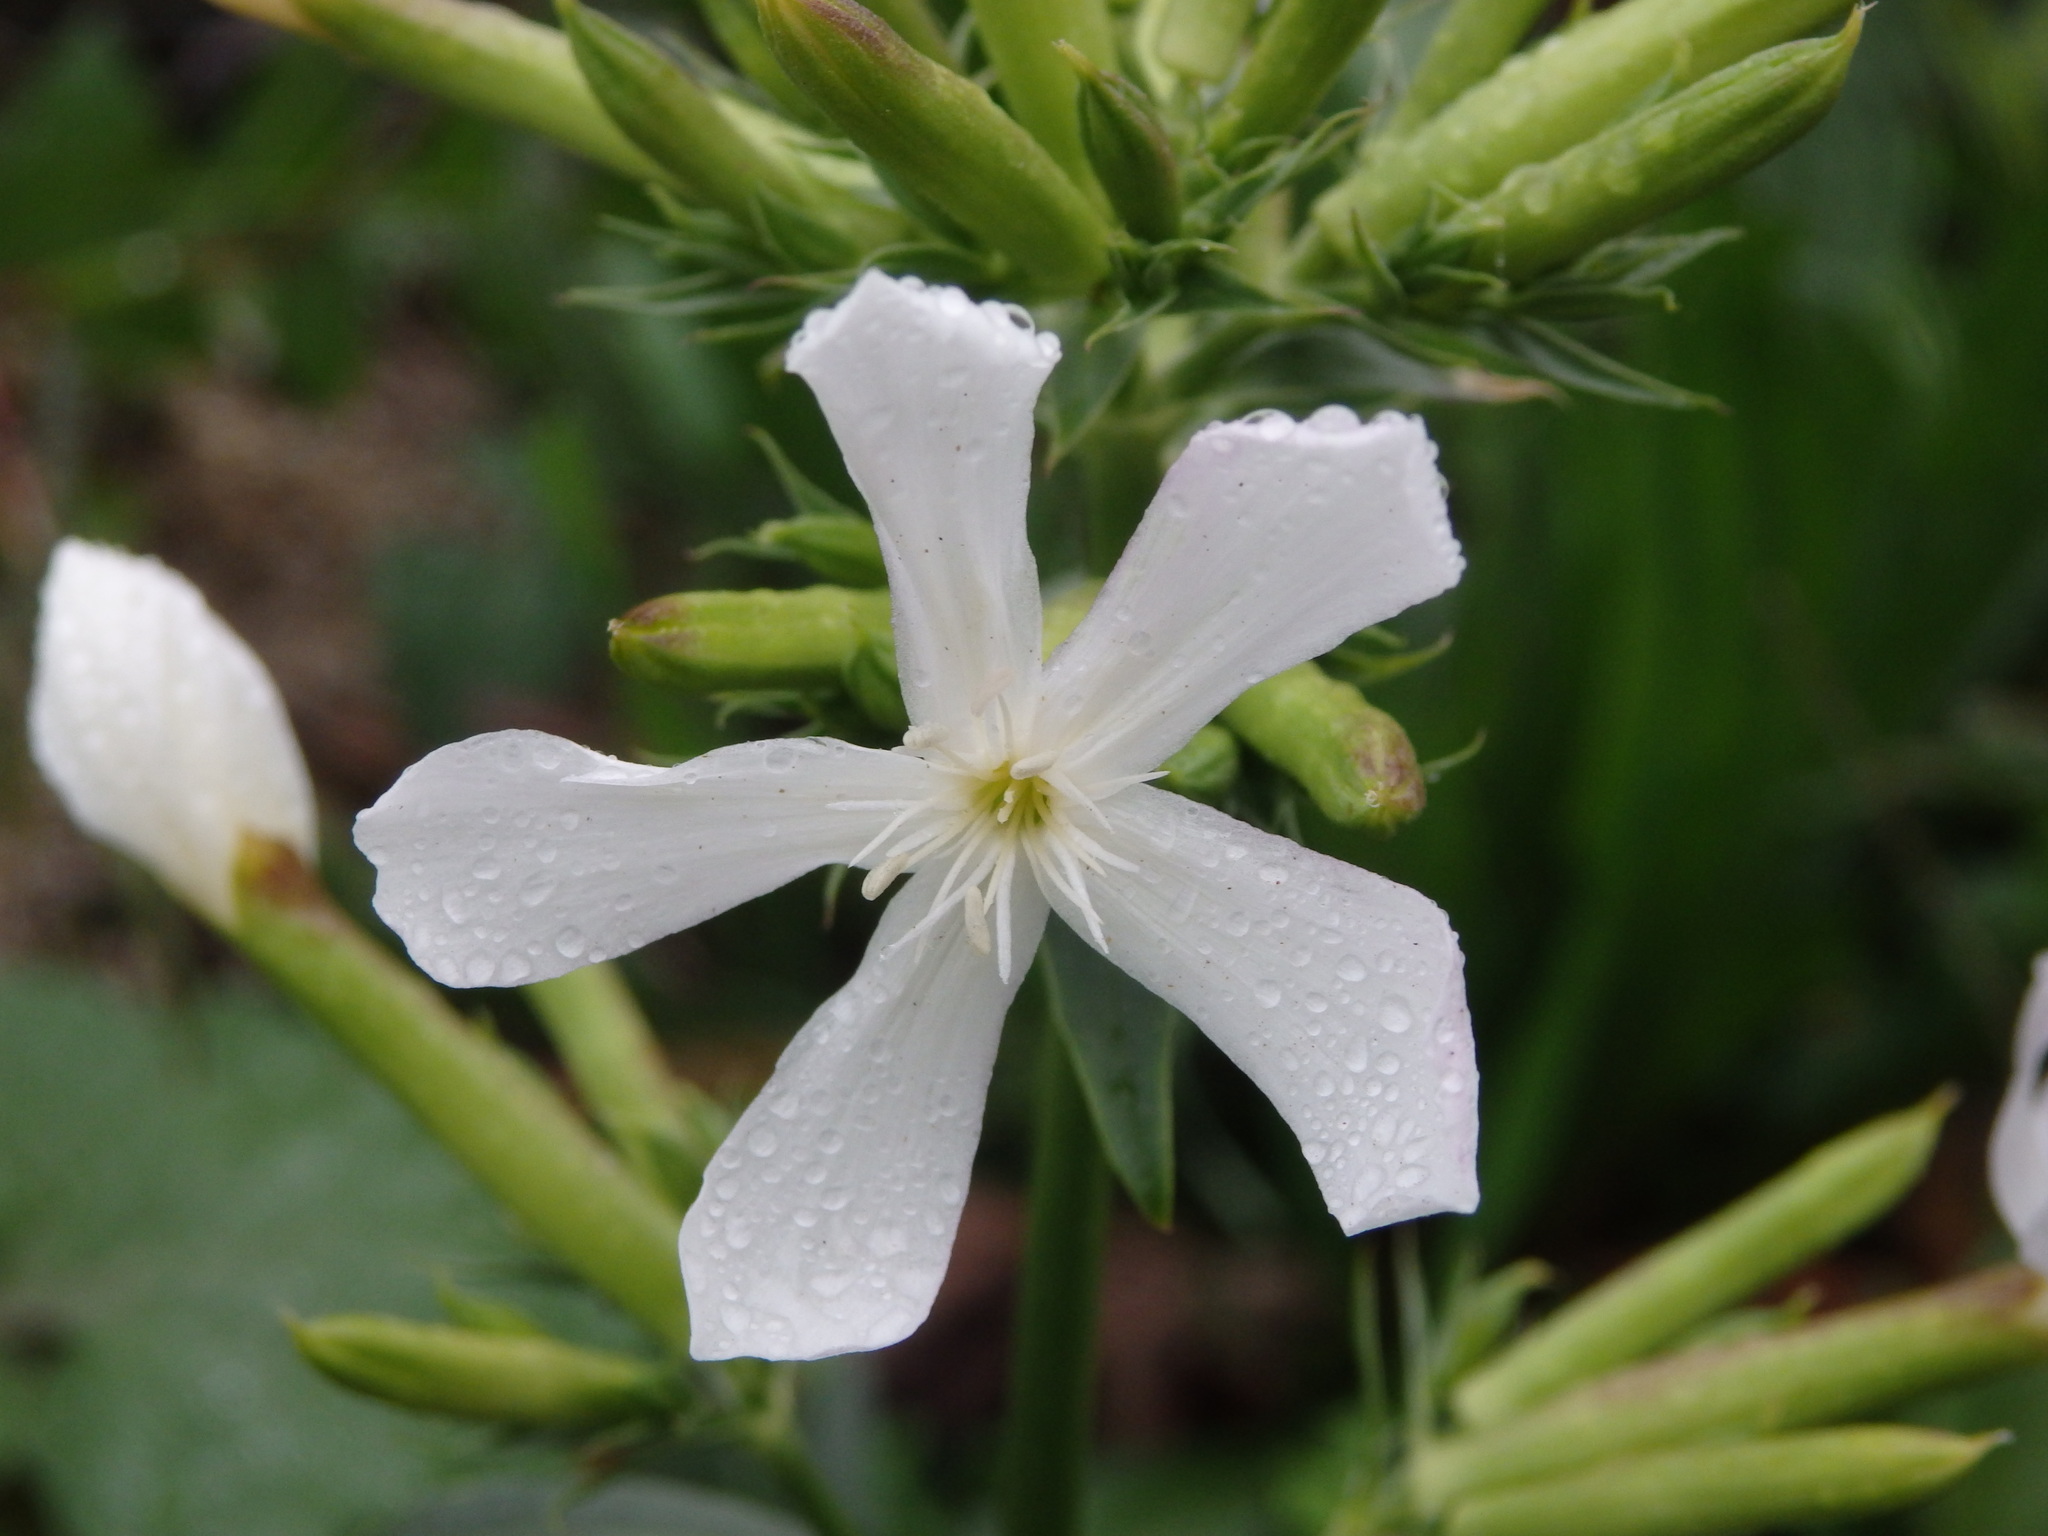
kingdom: Plantae
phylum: Tracheophyta
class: Magnoliopsida
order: Caryophyllales
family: Caryophyllaceae
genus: Saponaria
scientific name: Saponaria officinalis
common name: Soapwort
